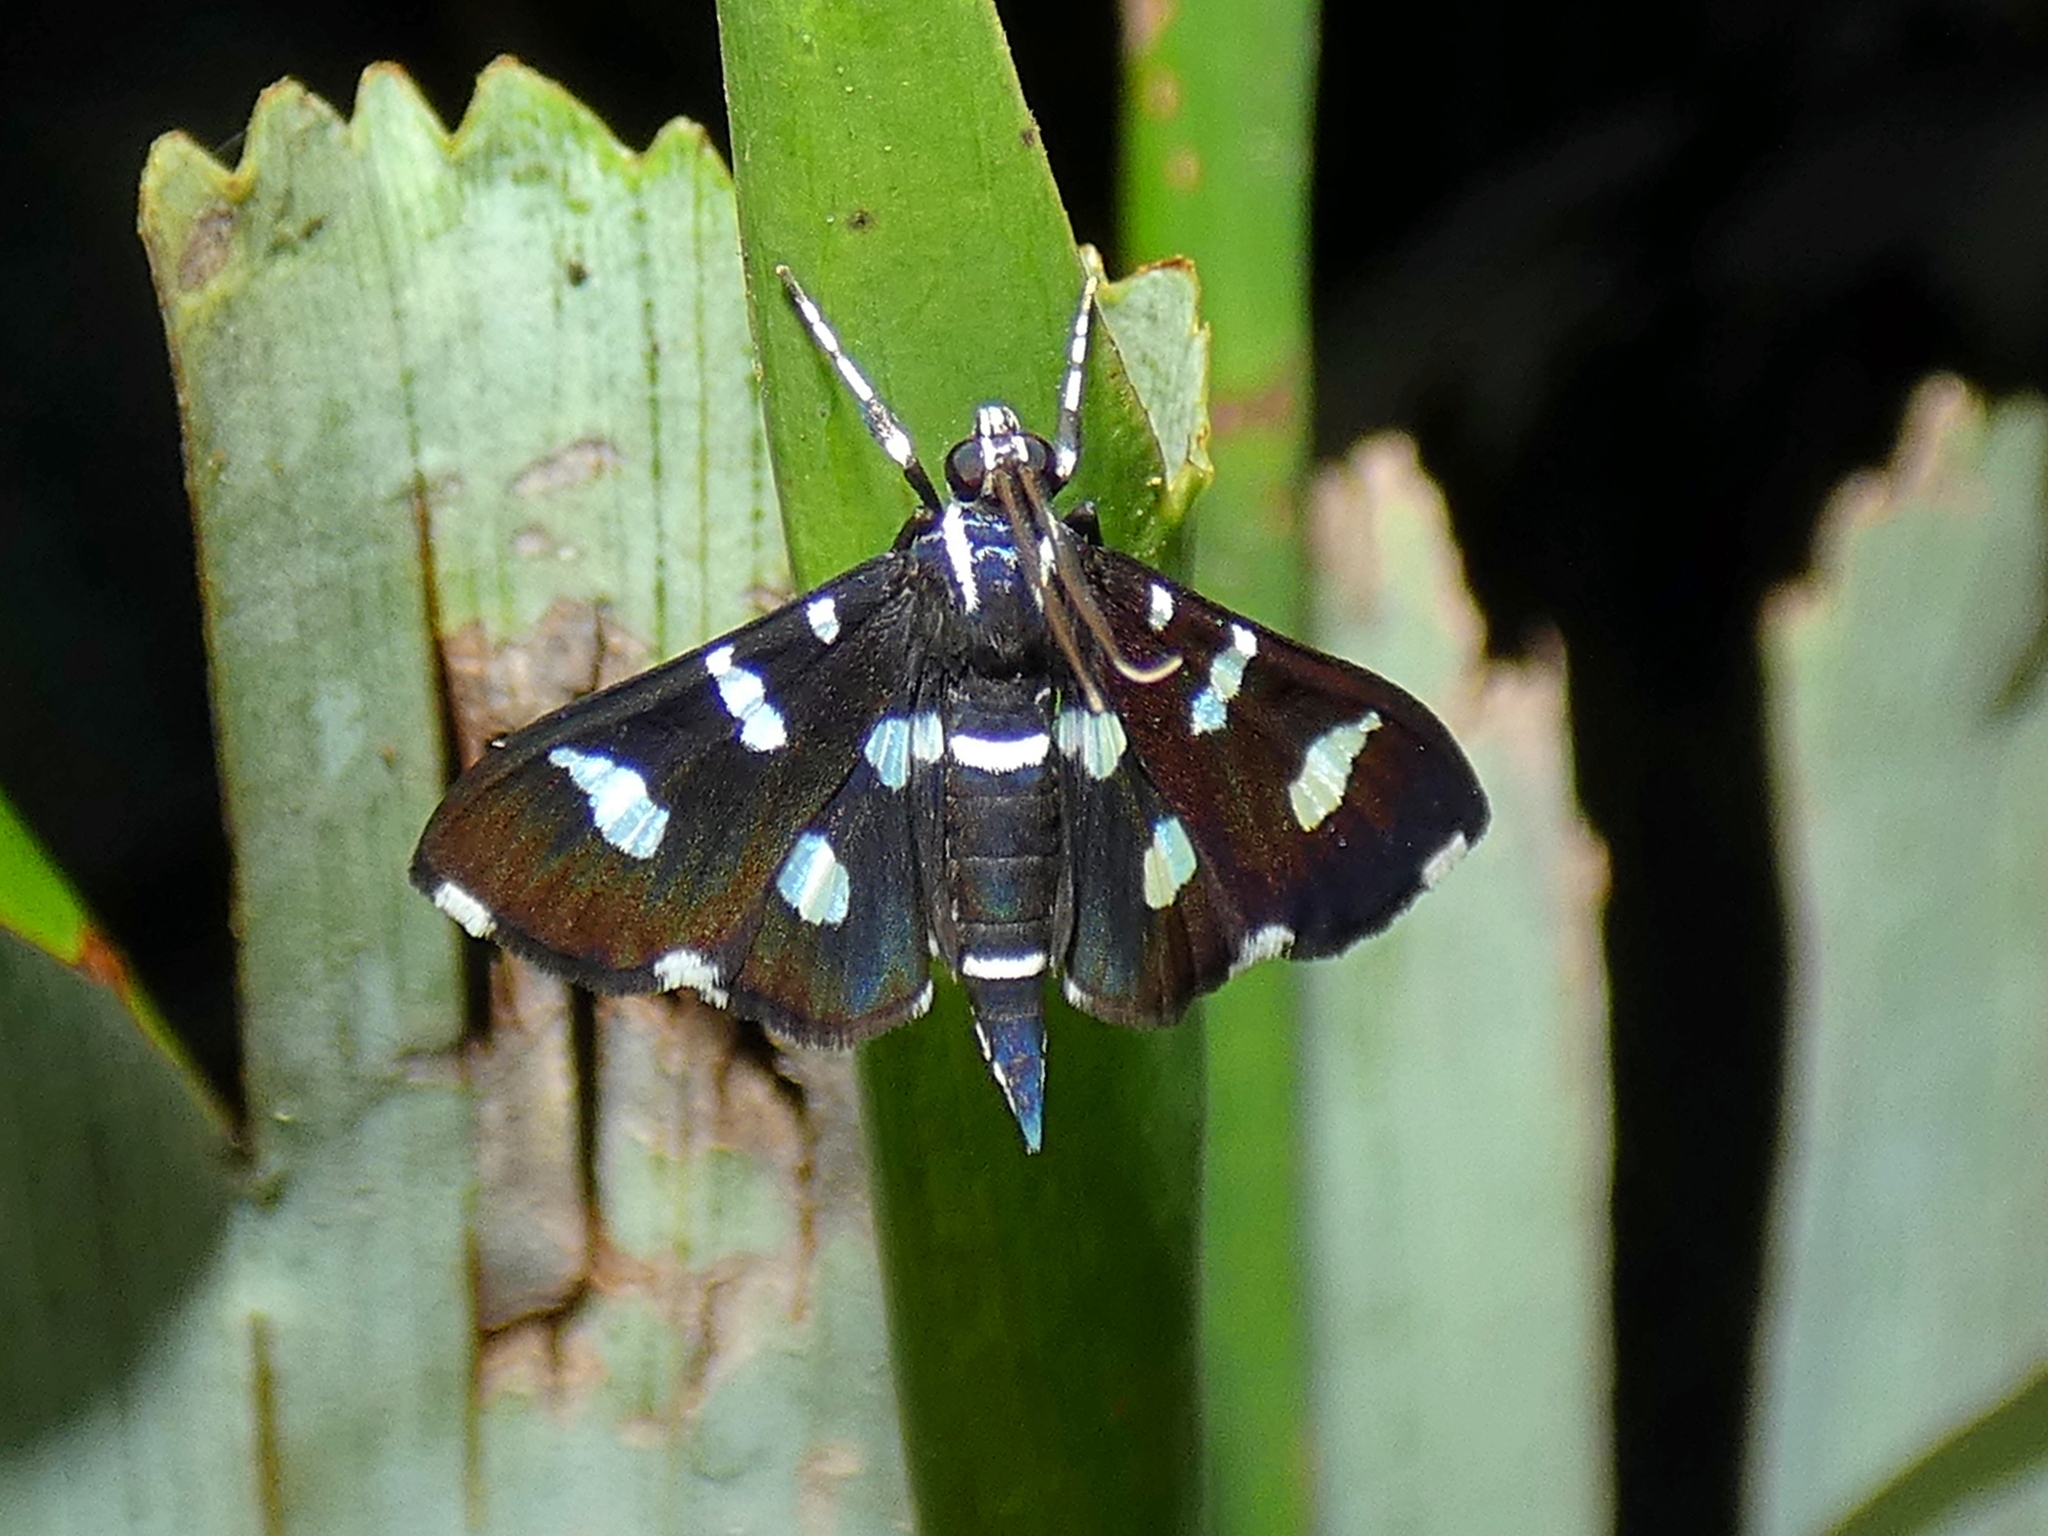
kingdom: Animalia
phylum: Arthropoda
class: Insecta
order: Lepidoptera
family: Crambidae
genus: Desmia
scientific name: Desmia discrepans
